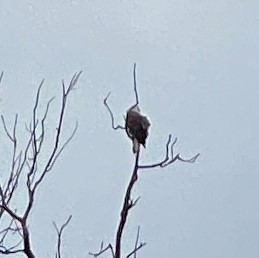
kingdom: Animalia
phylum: Chordata
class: Aves
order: Accipitriformes
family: Accipitridae
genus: Haliaeetus
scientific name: Haliaeetus leucocephalus
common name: Bald eagle
